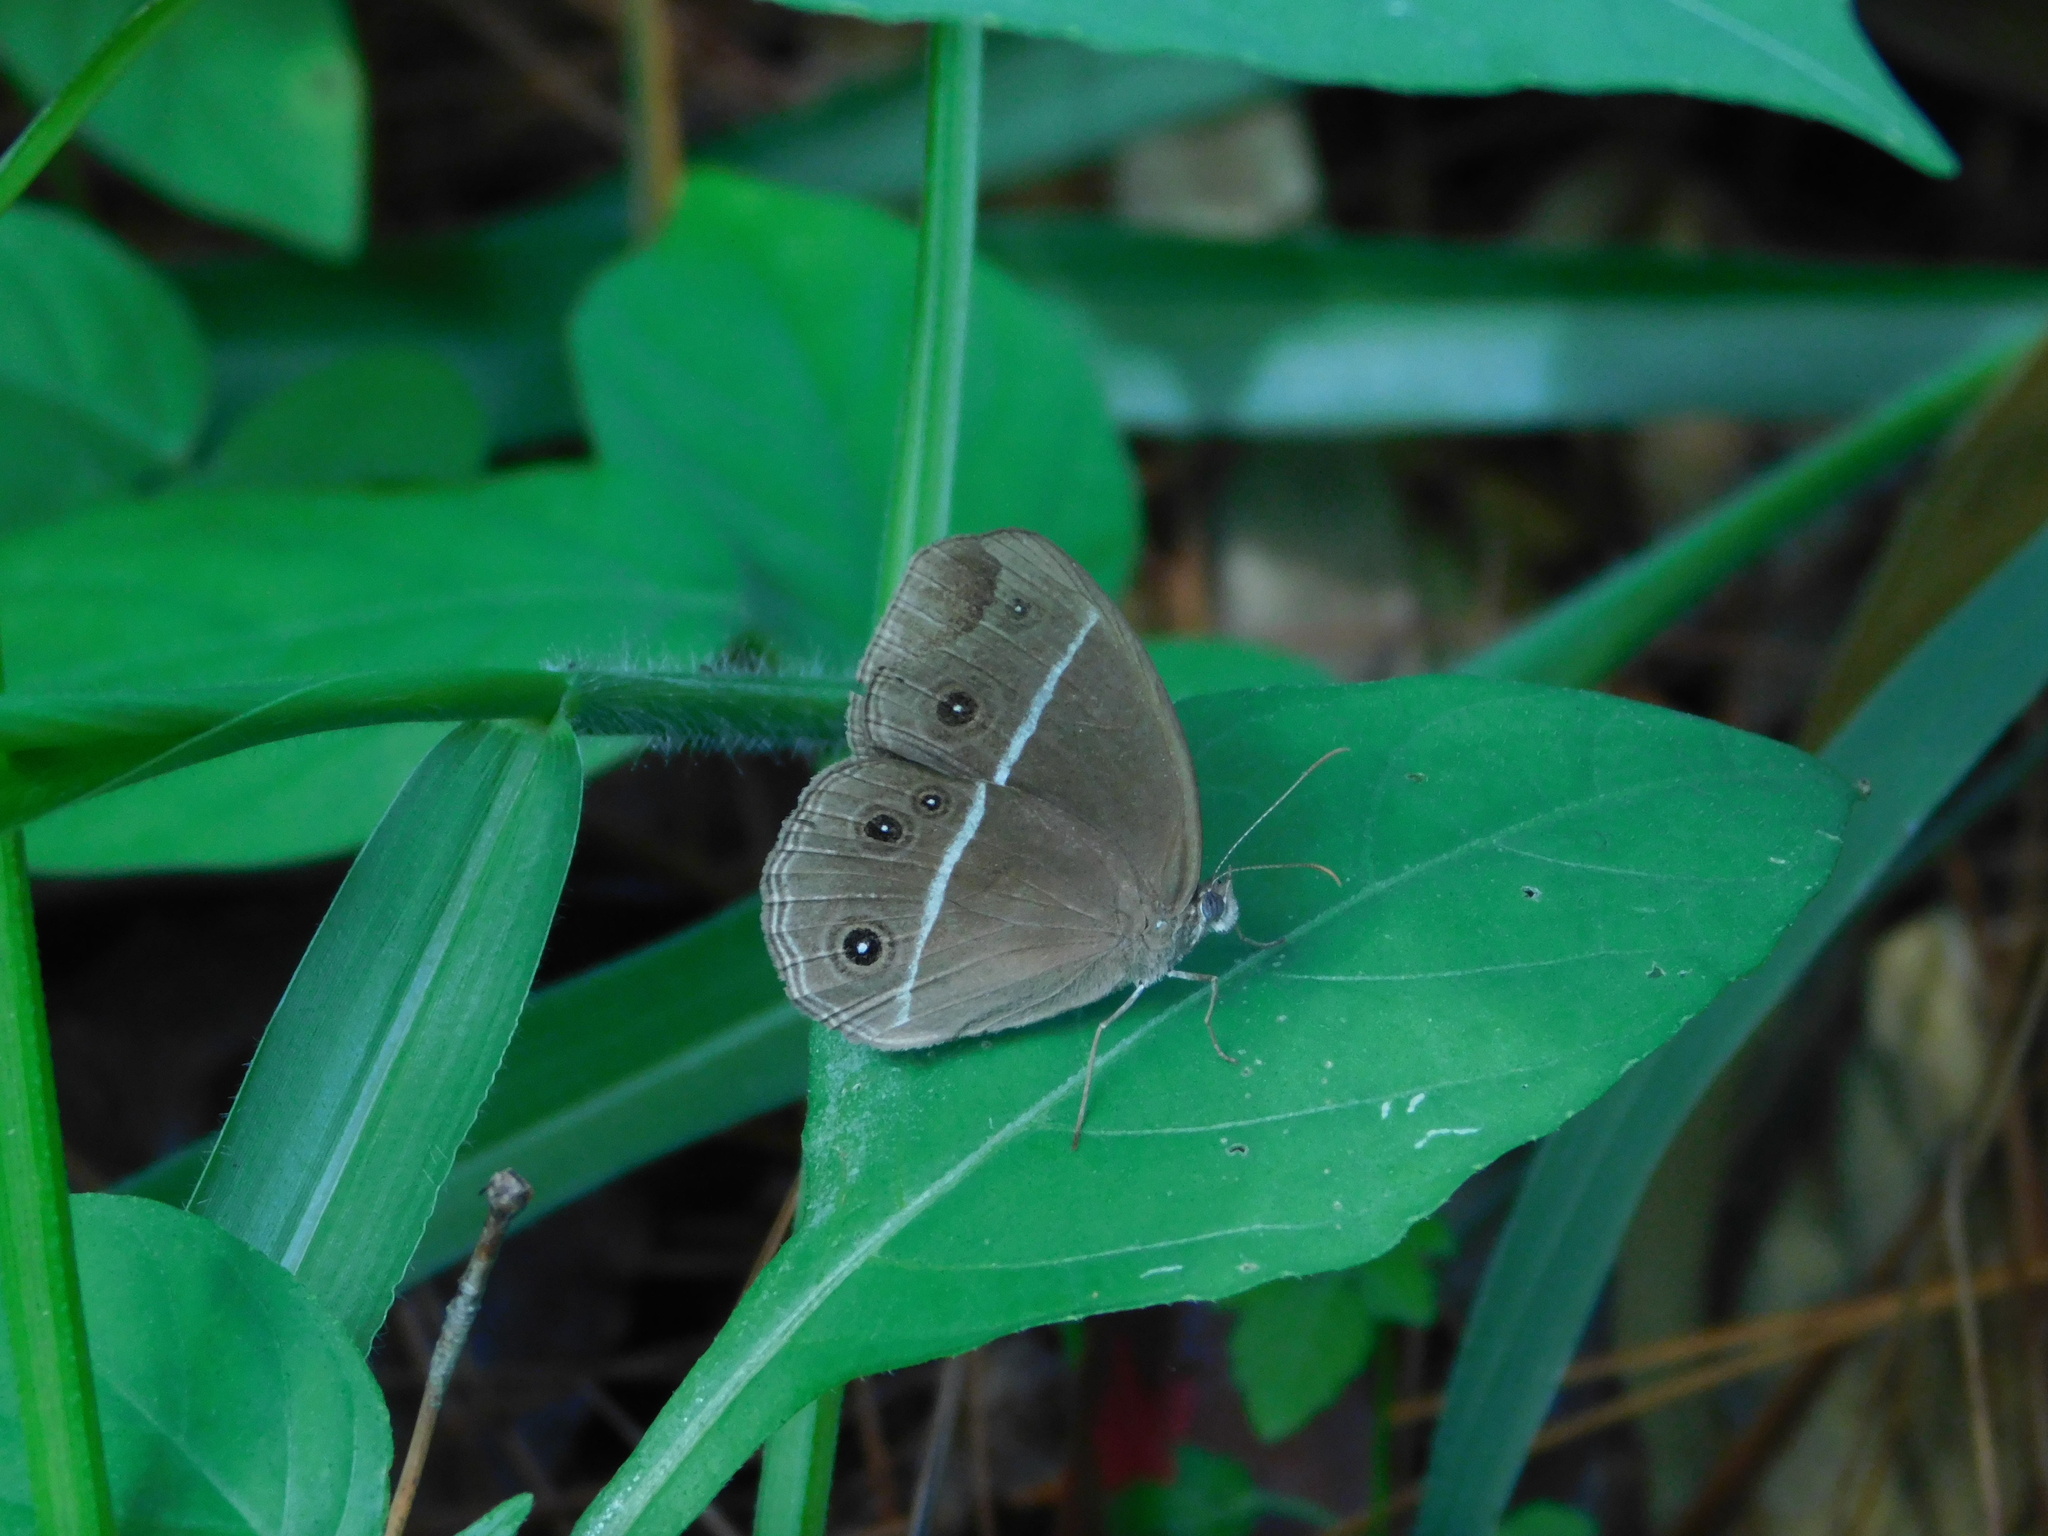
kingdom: Animalia
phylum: Arthropoda
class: Insecta
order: Lepidoptera
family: Nymphalidae
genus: Orsotriaena
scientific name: Orsotriaena medus
